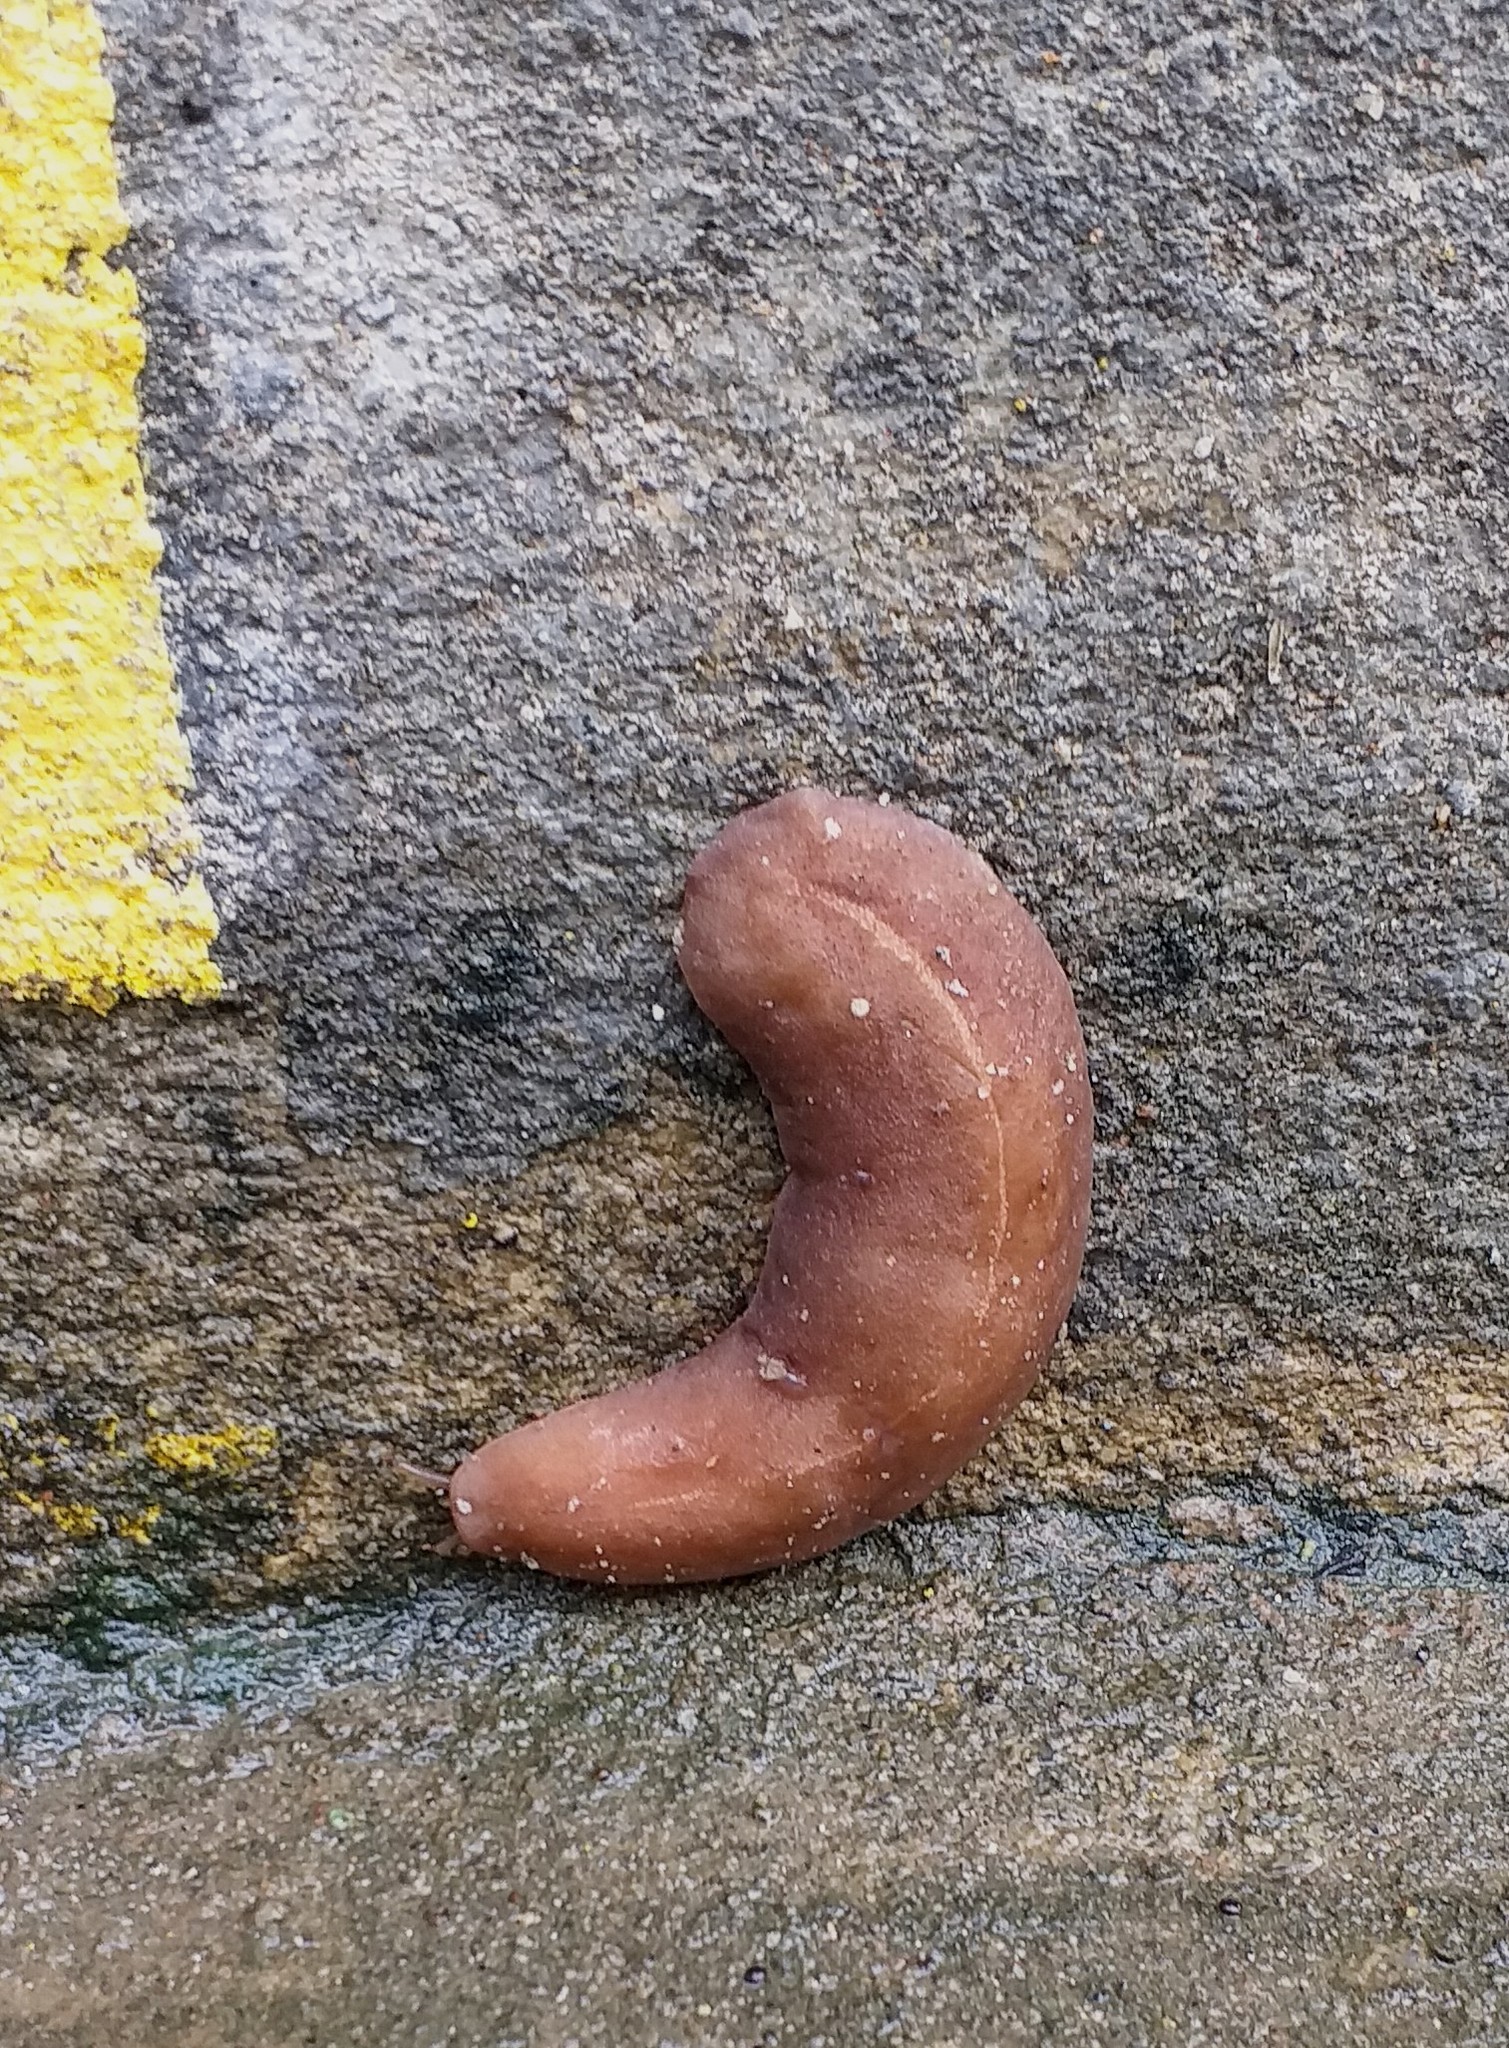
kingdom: Animalia
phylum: Mollusca
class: Gastropoda
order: Systellommatophora
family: Veronicellidae
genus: Laevicaulis
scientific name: Laevicaulis alte
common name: Tropical leatherleaf
